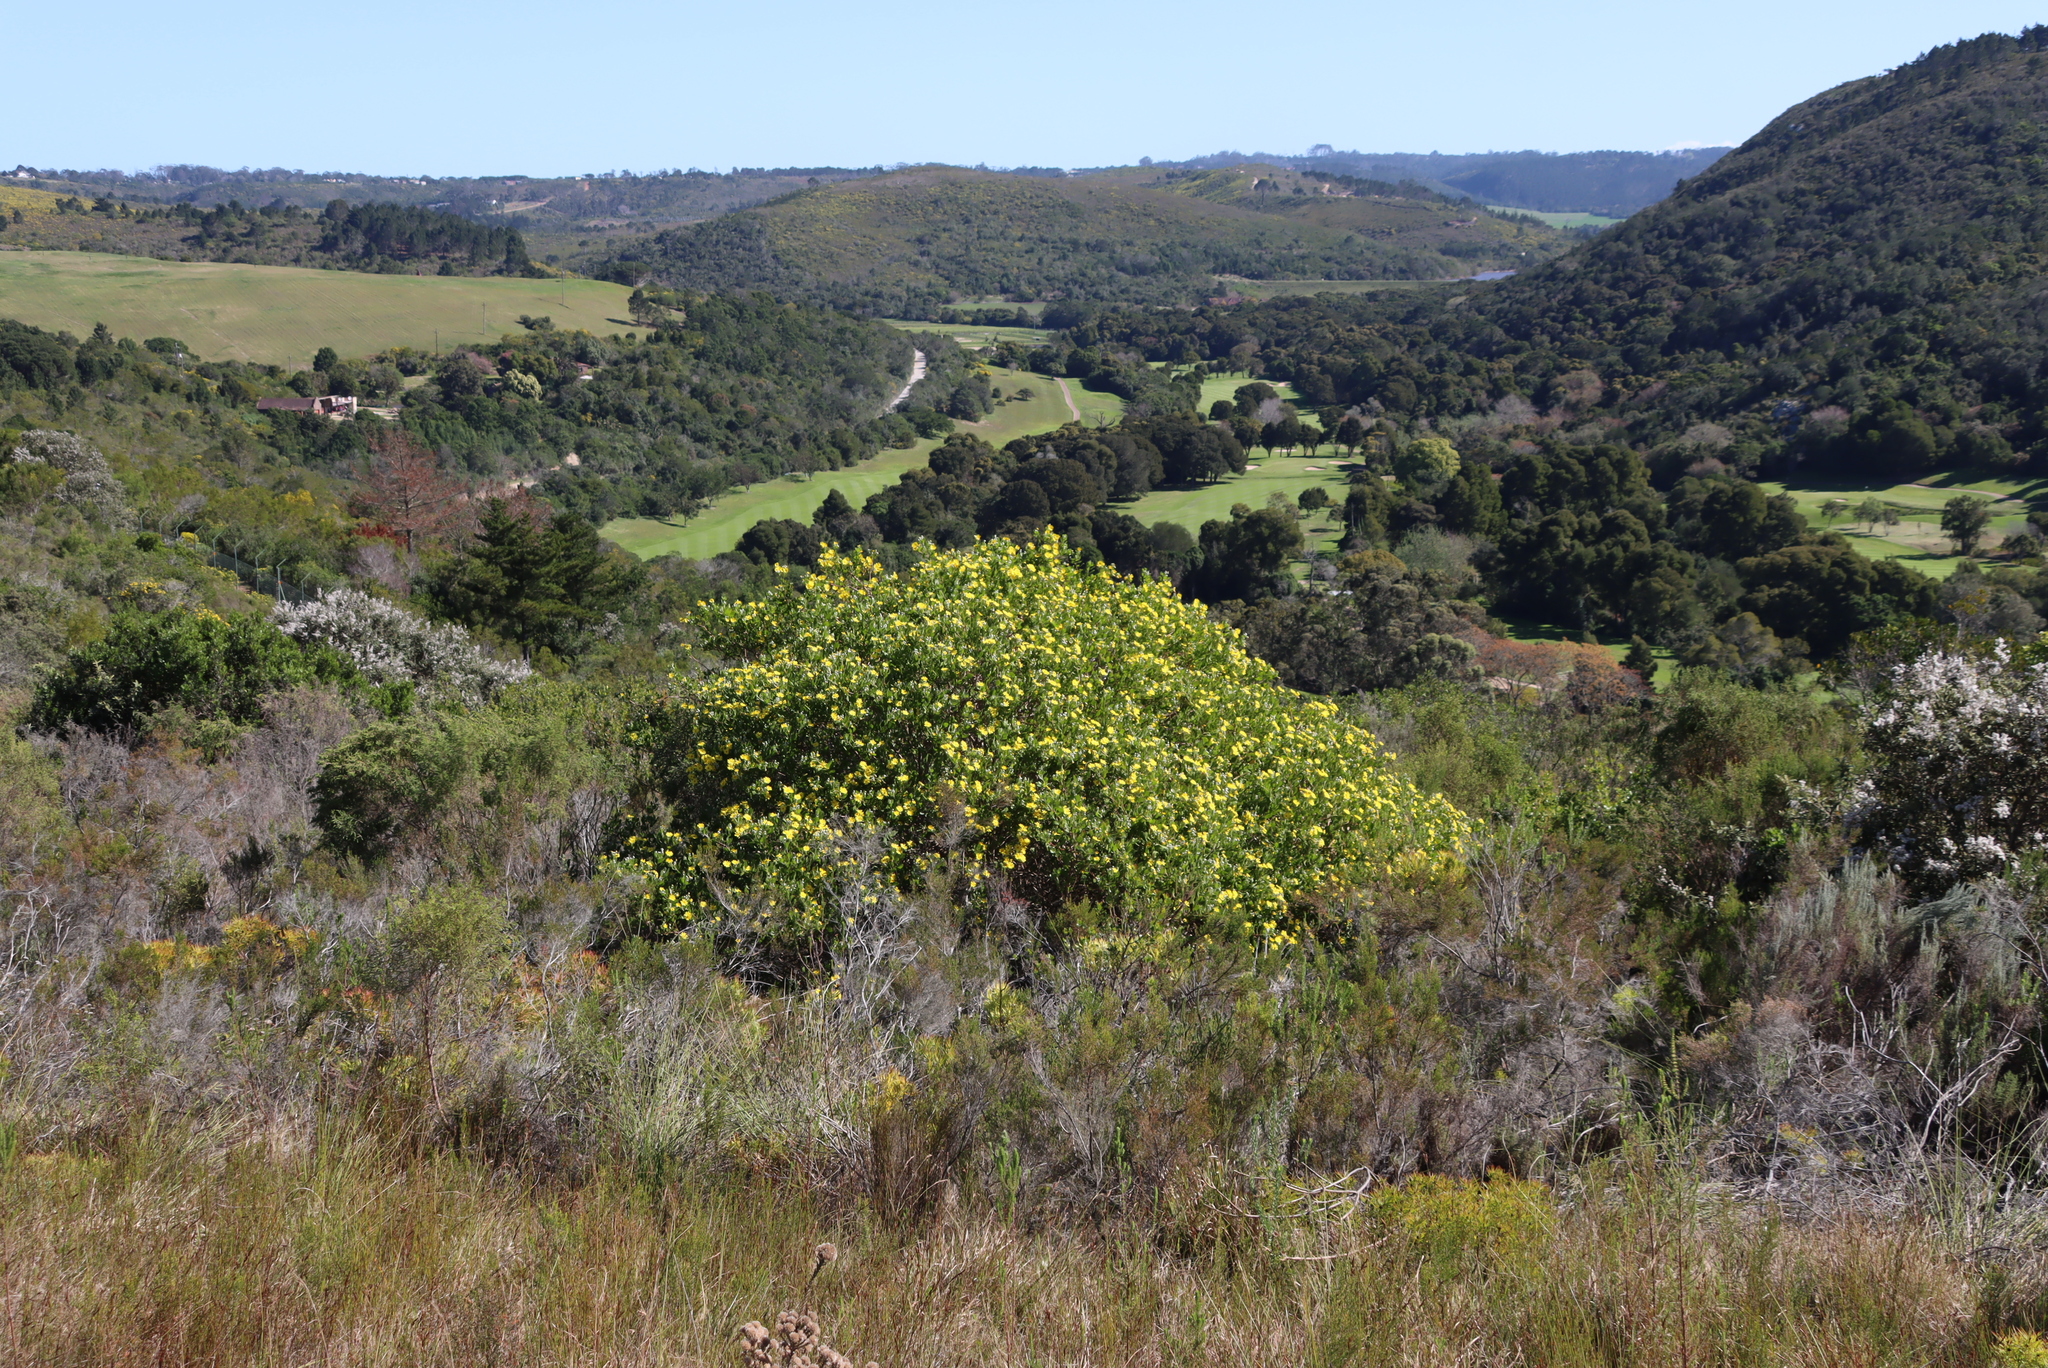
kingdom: Plantae
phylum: Tracheophyta
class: Magnoliopsida
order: Asterales
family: Asteraceae
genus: Osteospermum
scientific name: Osteospermum moniliferum
